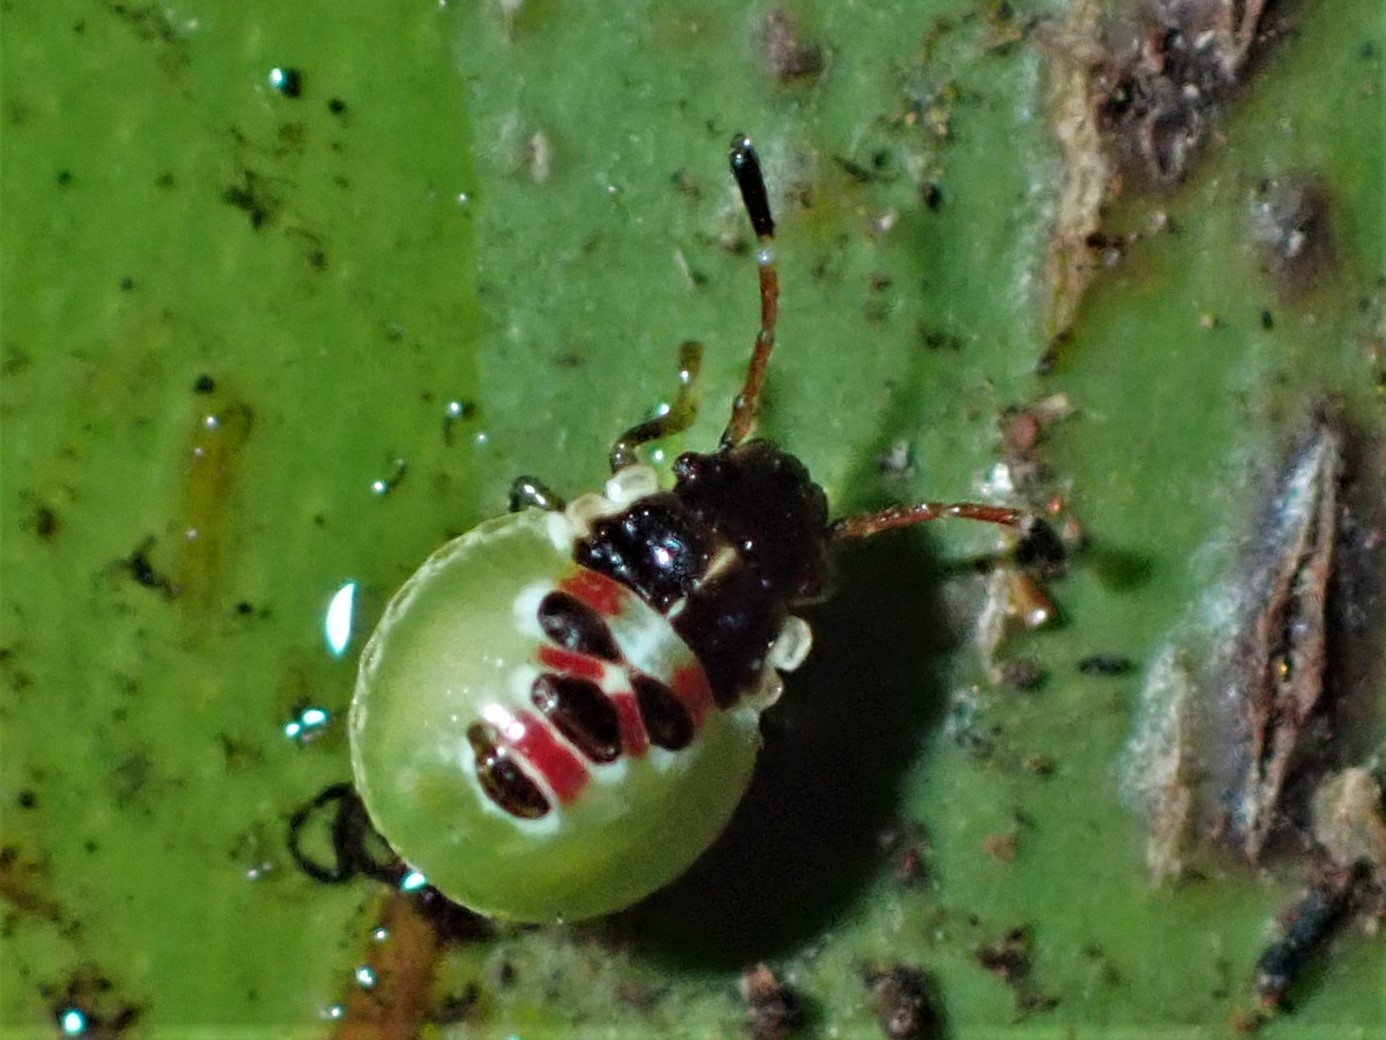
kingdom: Animalia
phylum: Arthropoda
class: Insecta
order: Hemiptera
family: Acanthosomatidae
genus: Oncacontias
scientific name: Oncacontias vittatus
